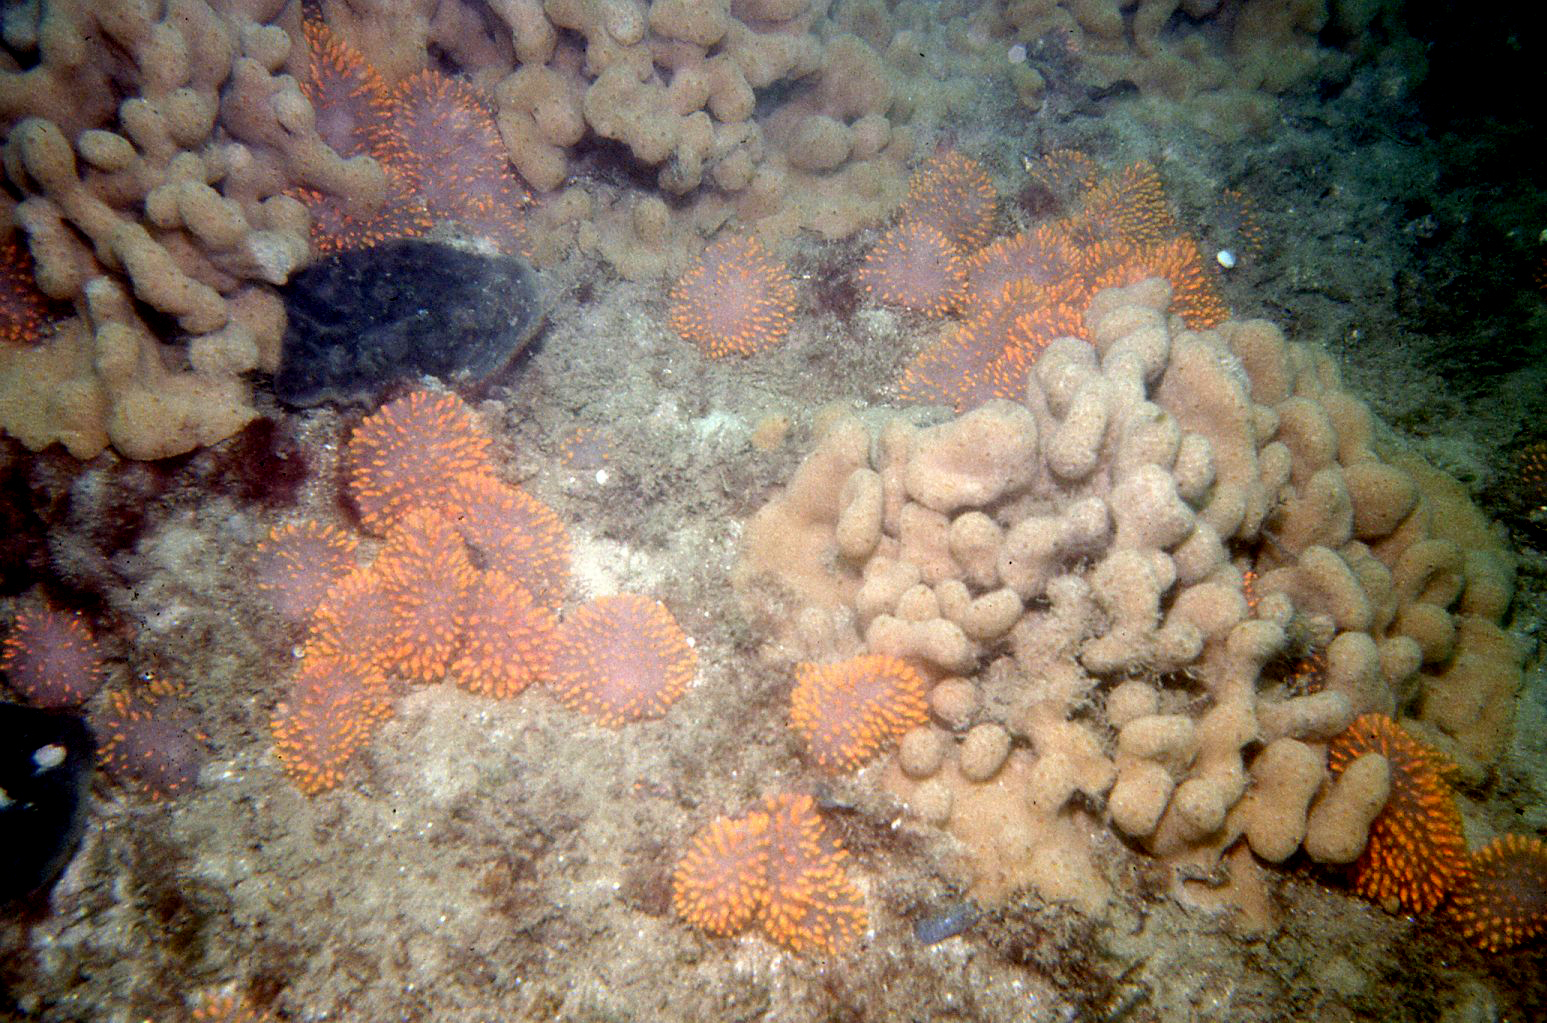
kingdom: Animalia
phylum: Chordata
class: Ascidiacea
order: Aplousobranchia
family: Polycitoridae
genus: Polycitor
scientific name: Polycitor giganteus
